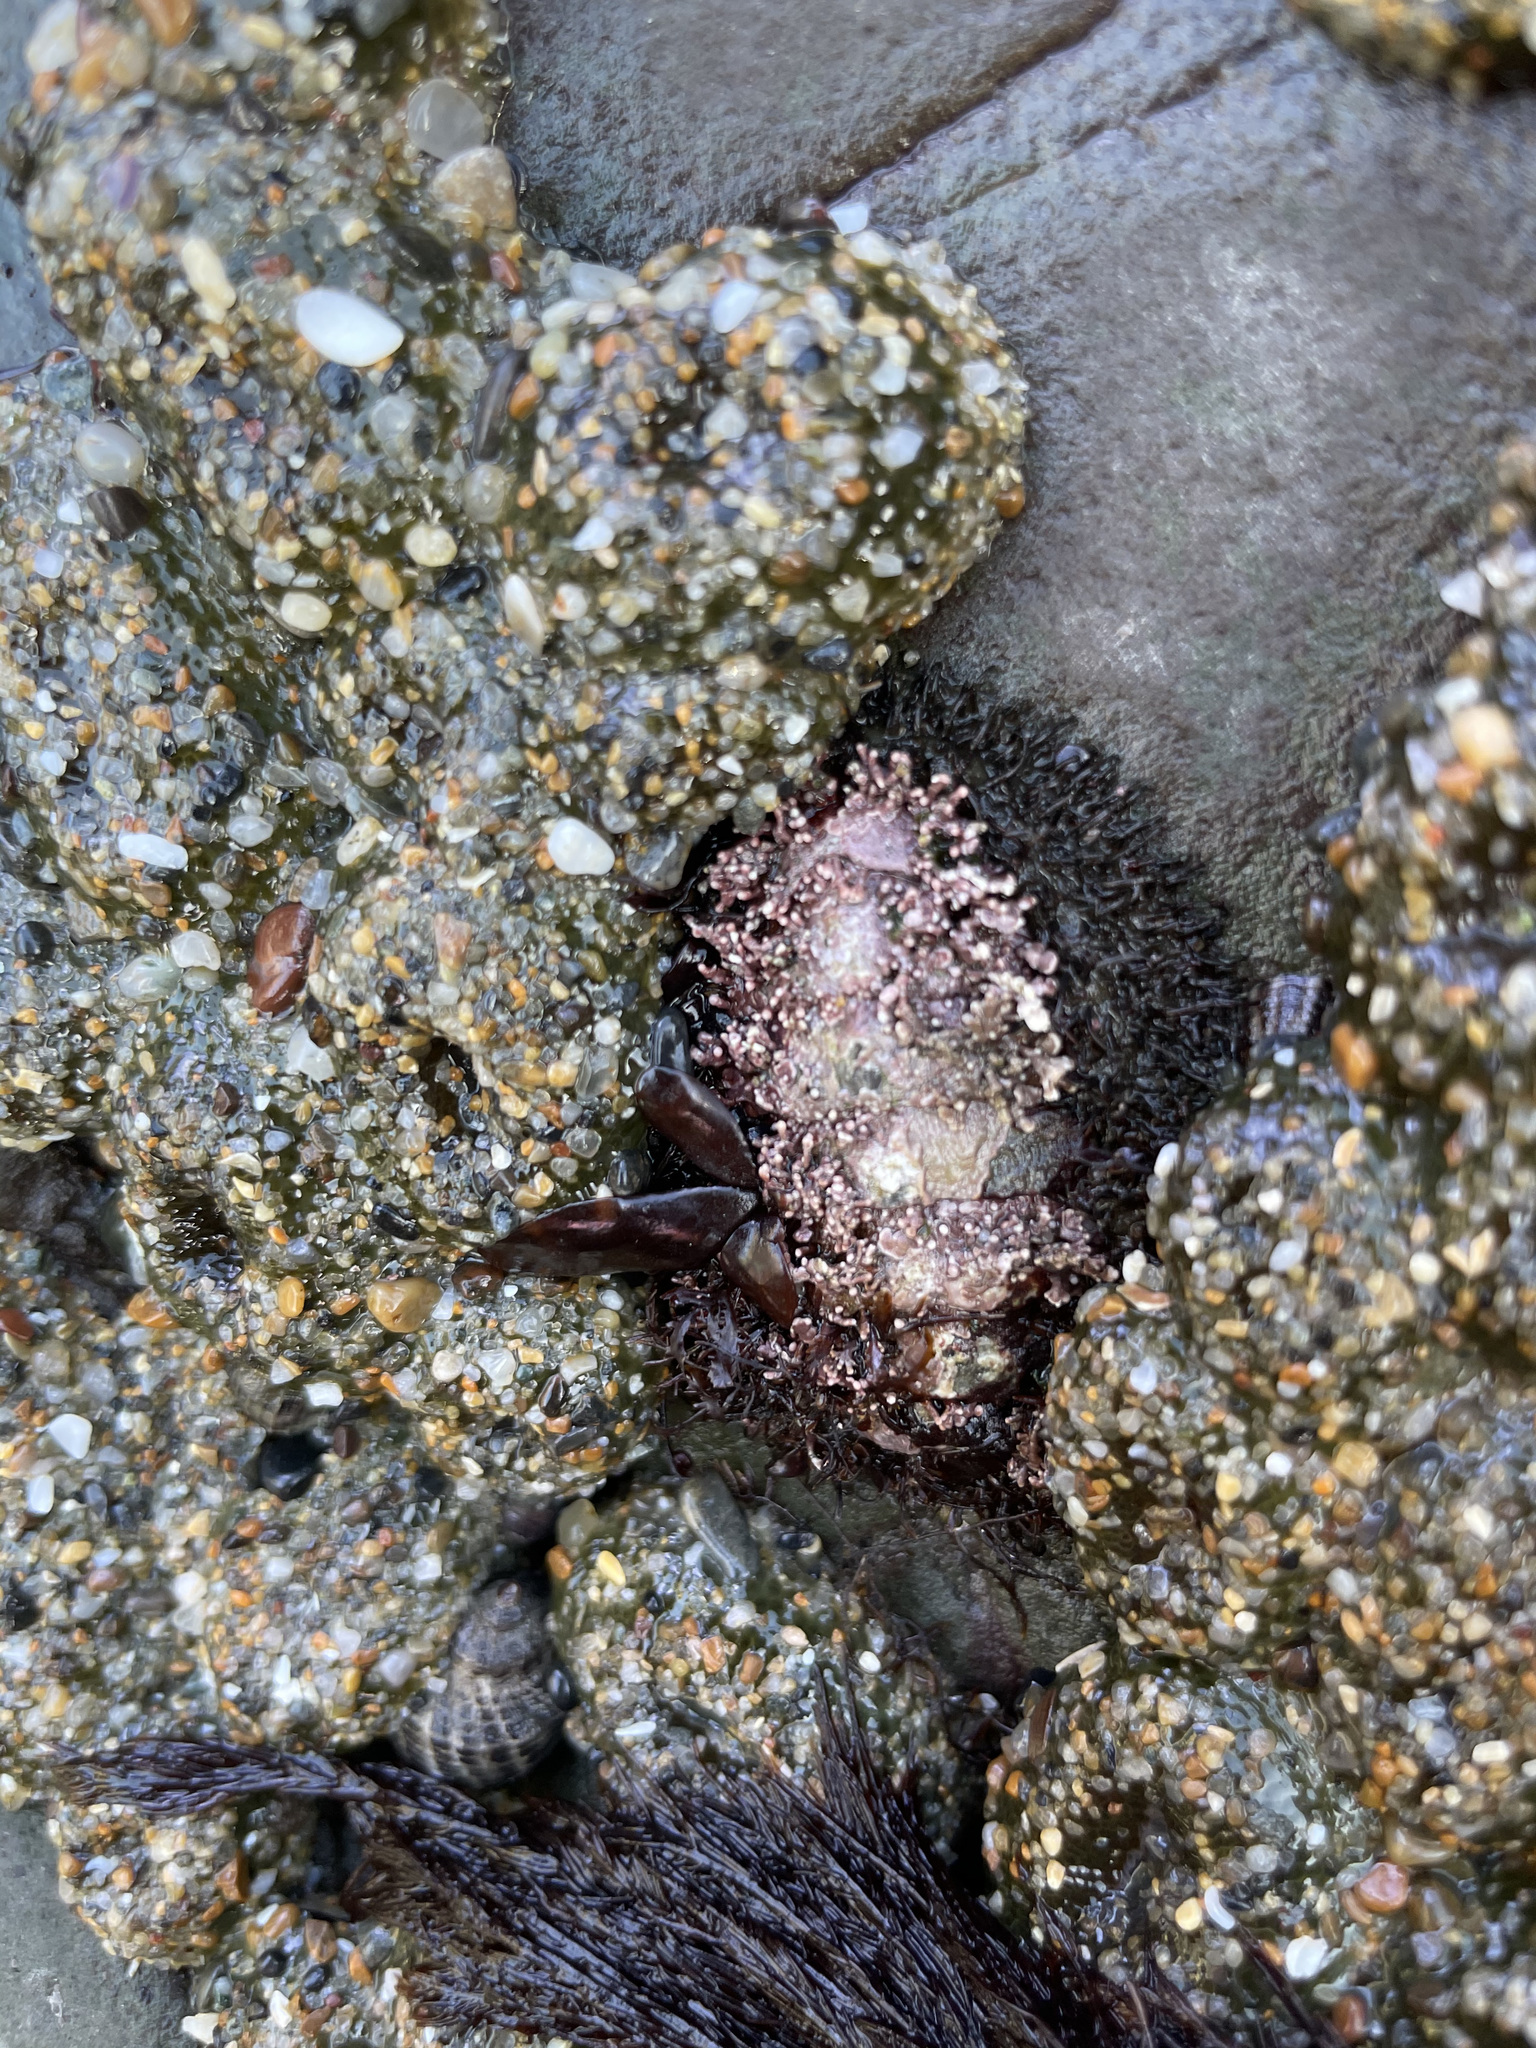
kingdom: Animalia
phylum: Mollusca
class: Polyplacophora
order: Chitonida
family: Mopaliidae
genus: Mopalia
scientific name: Mopalia muscosa
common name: Mossy chiton
